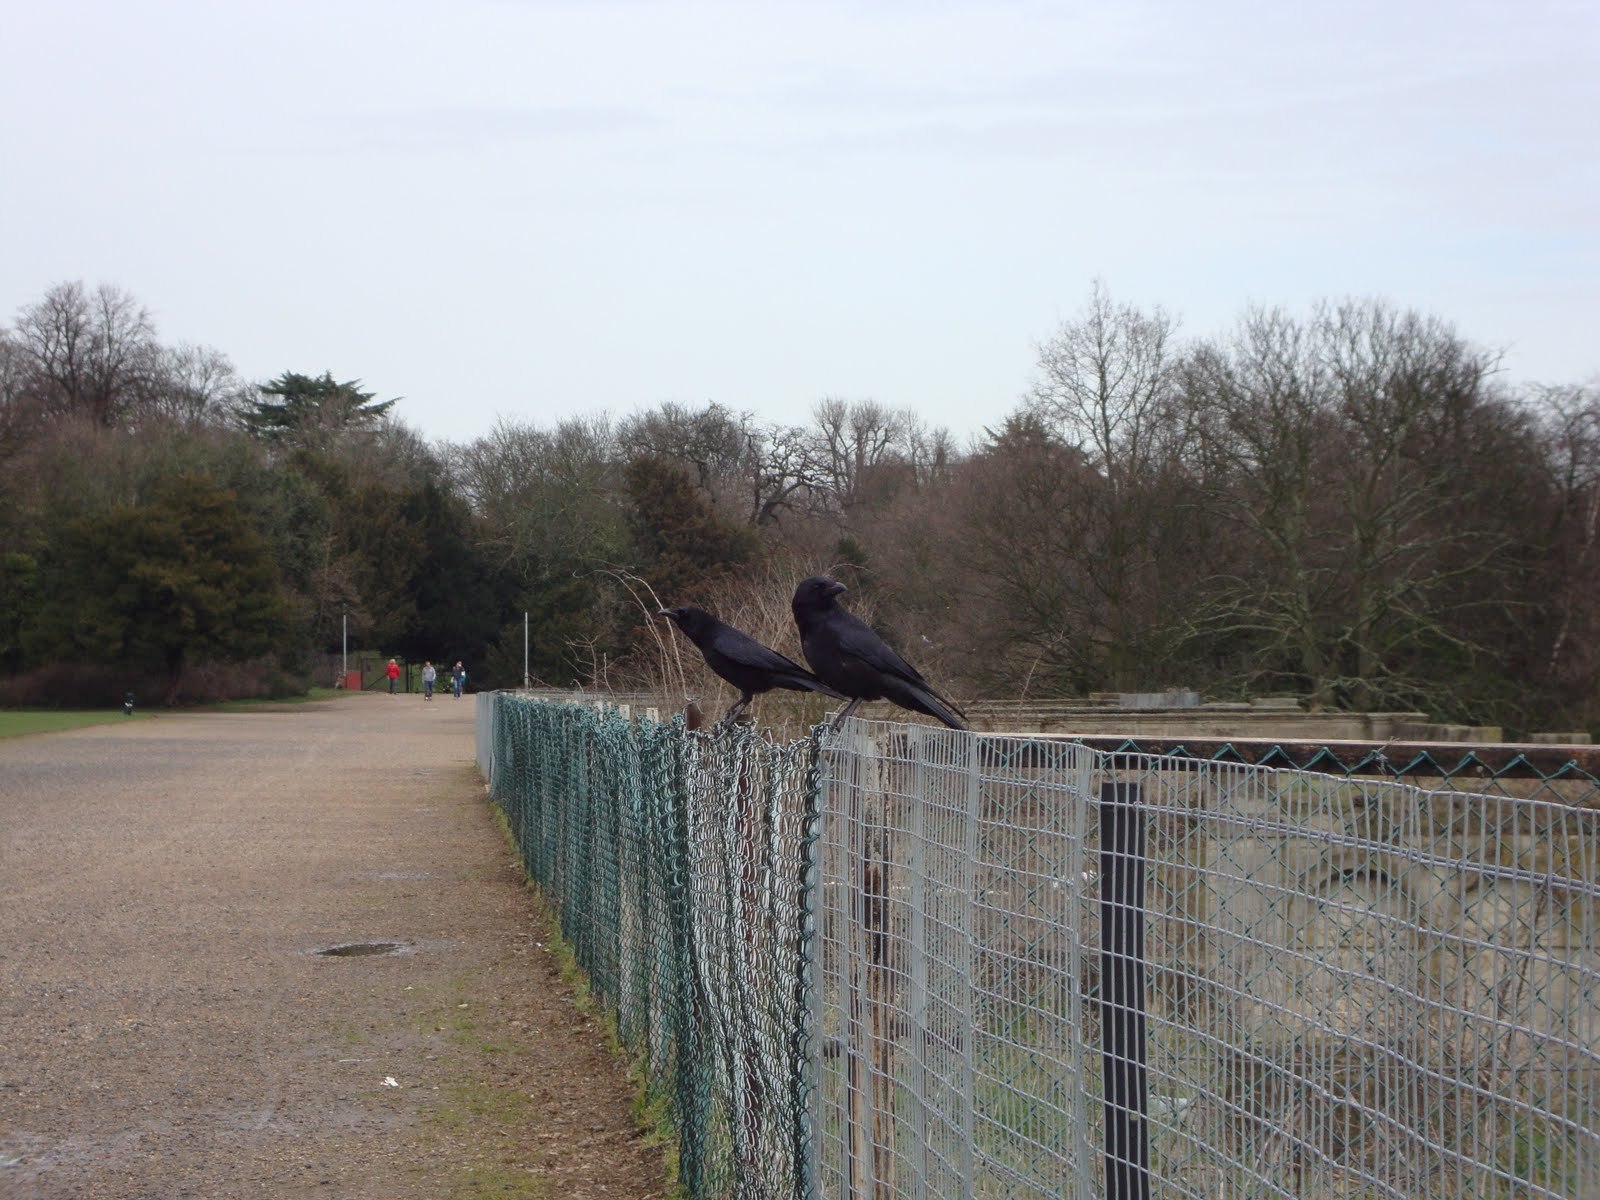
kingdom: Animalia
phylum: Chordata
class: Aves
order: Passeriformes
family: Corvidae
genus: Corvus
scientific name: Corvus corone
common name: Carrion crow
